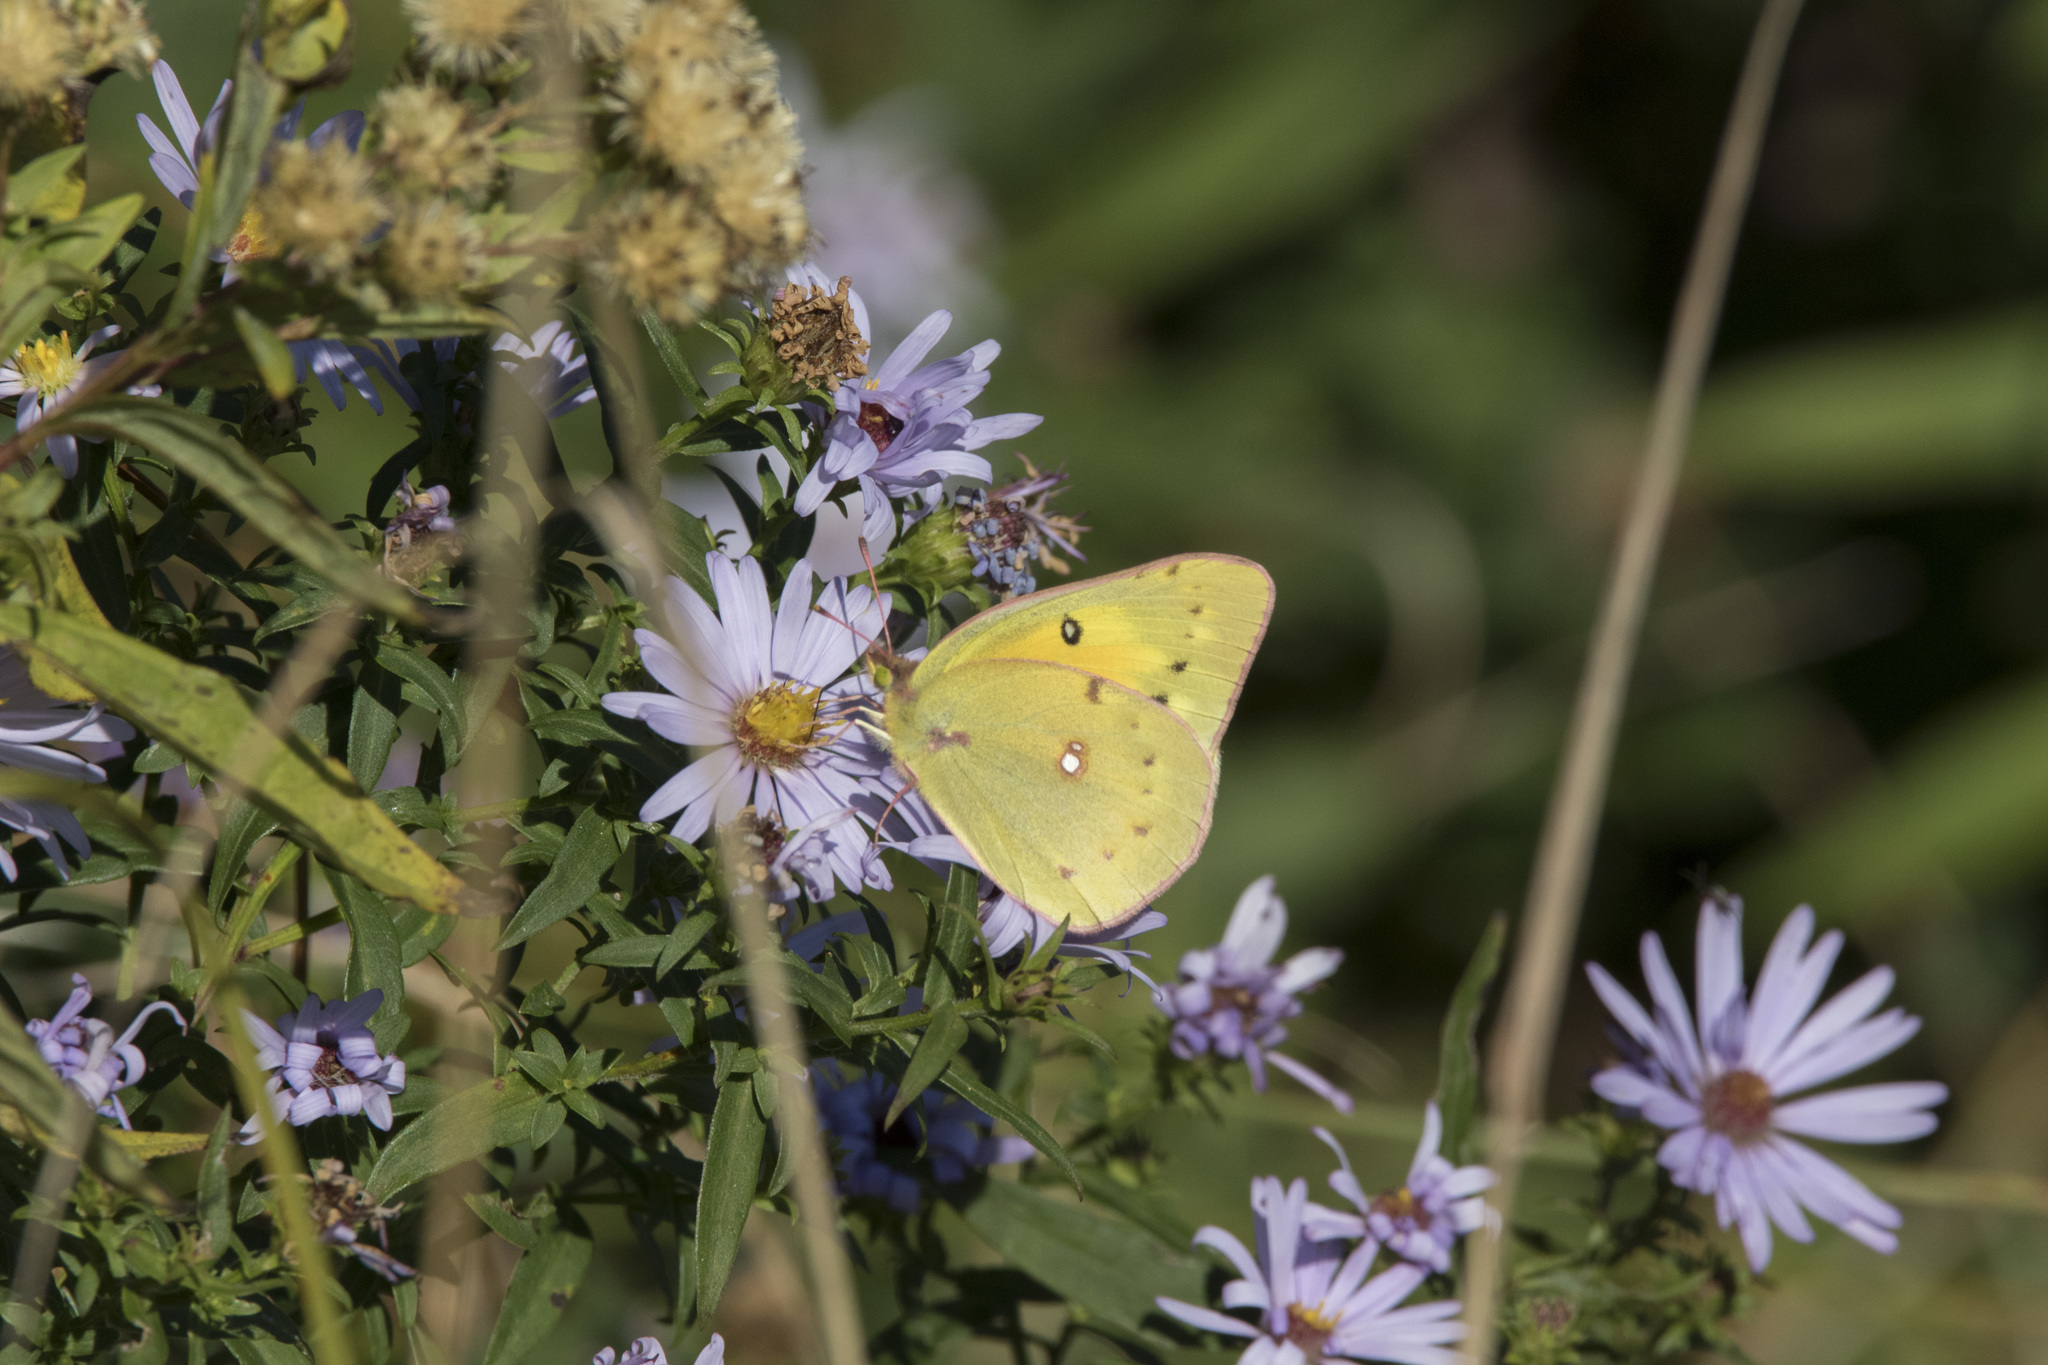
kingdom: Animalia
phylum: Arthropoda
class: Insecta
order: Lepidoptera
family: Pieridae
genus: Colias
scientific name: Colias eurytheme
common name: Alfalfa butterfly
